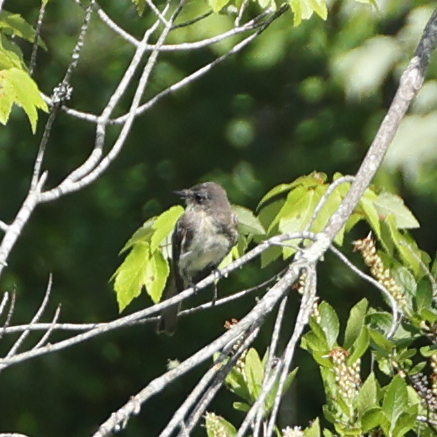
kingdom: Animalia
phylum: Chordata
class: Aves
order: Passeriformes
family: Tyrannidae
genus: Sayornis
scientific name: Sayornis phoebe
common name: Eastern phoebe
